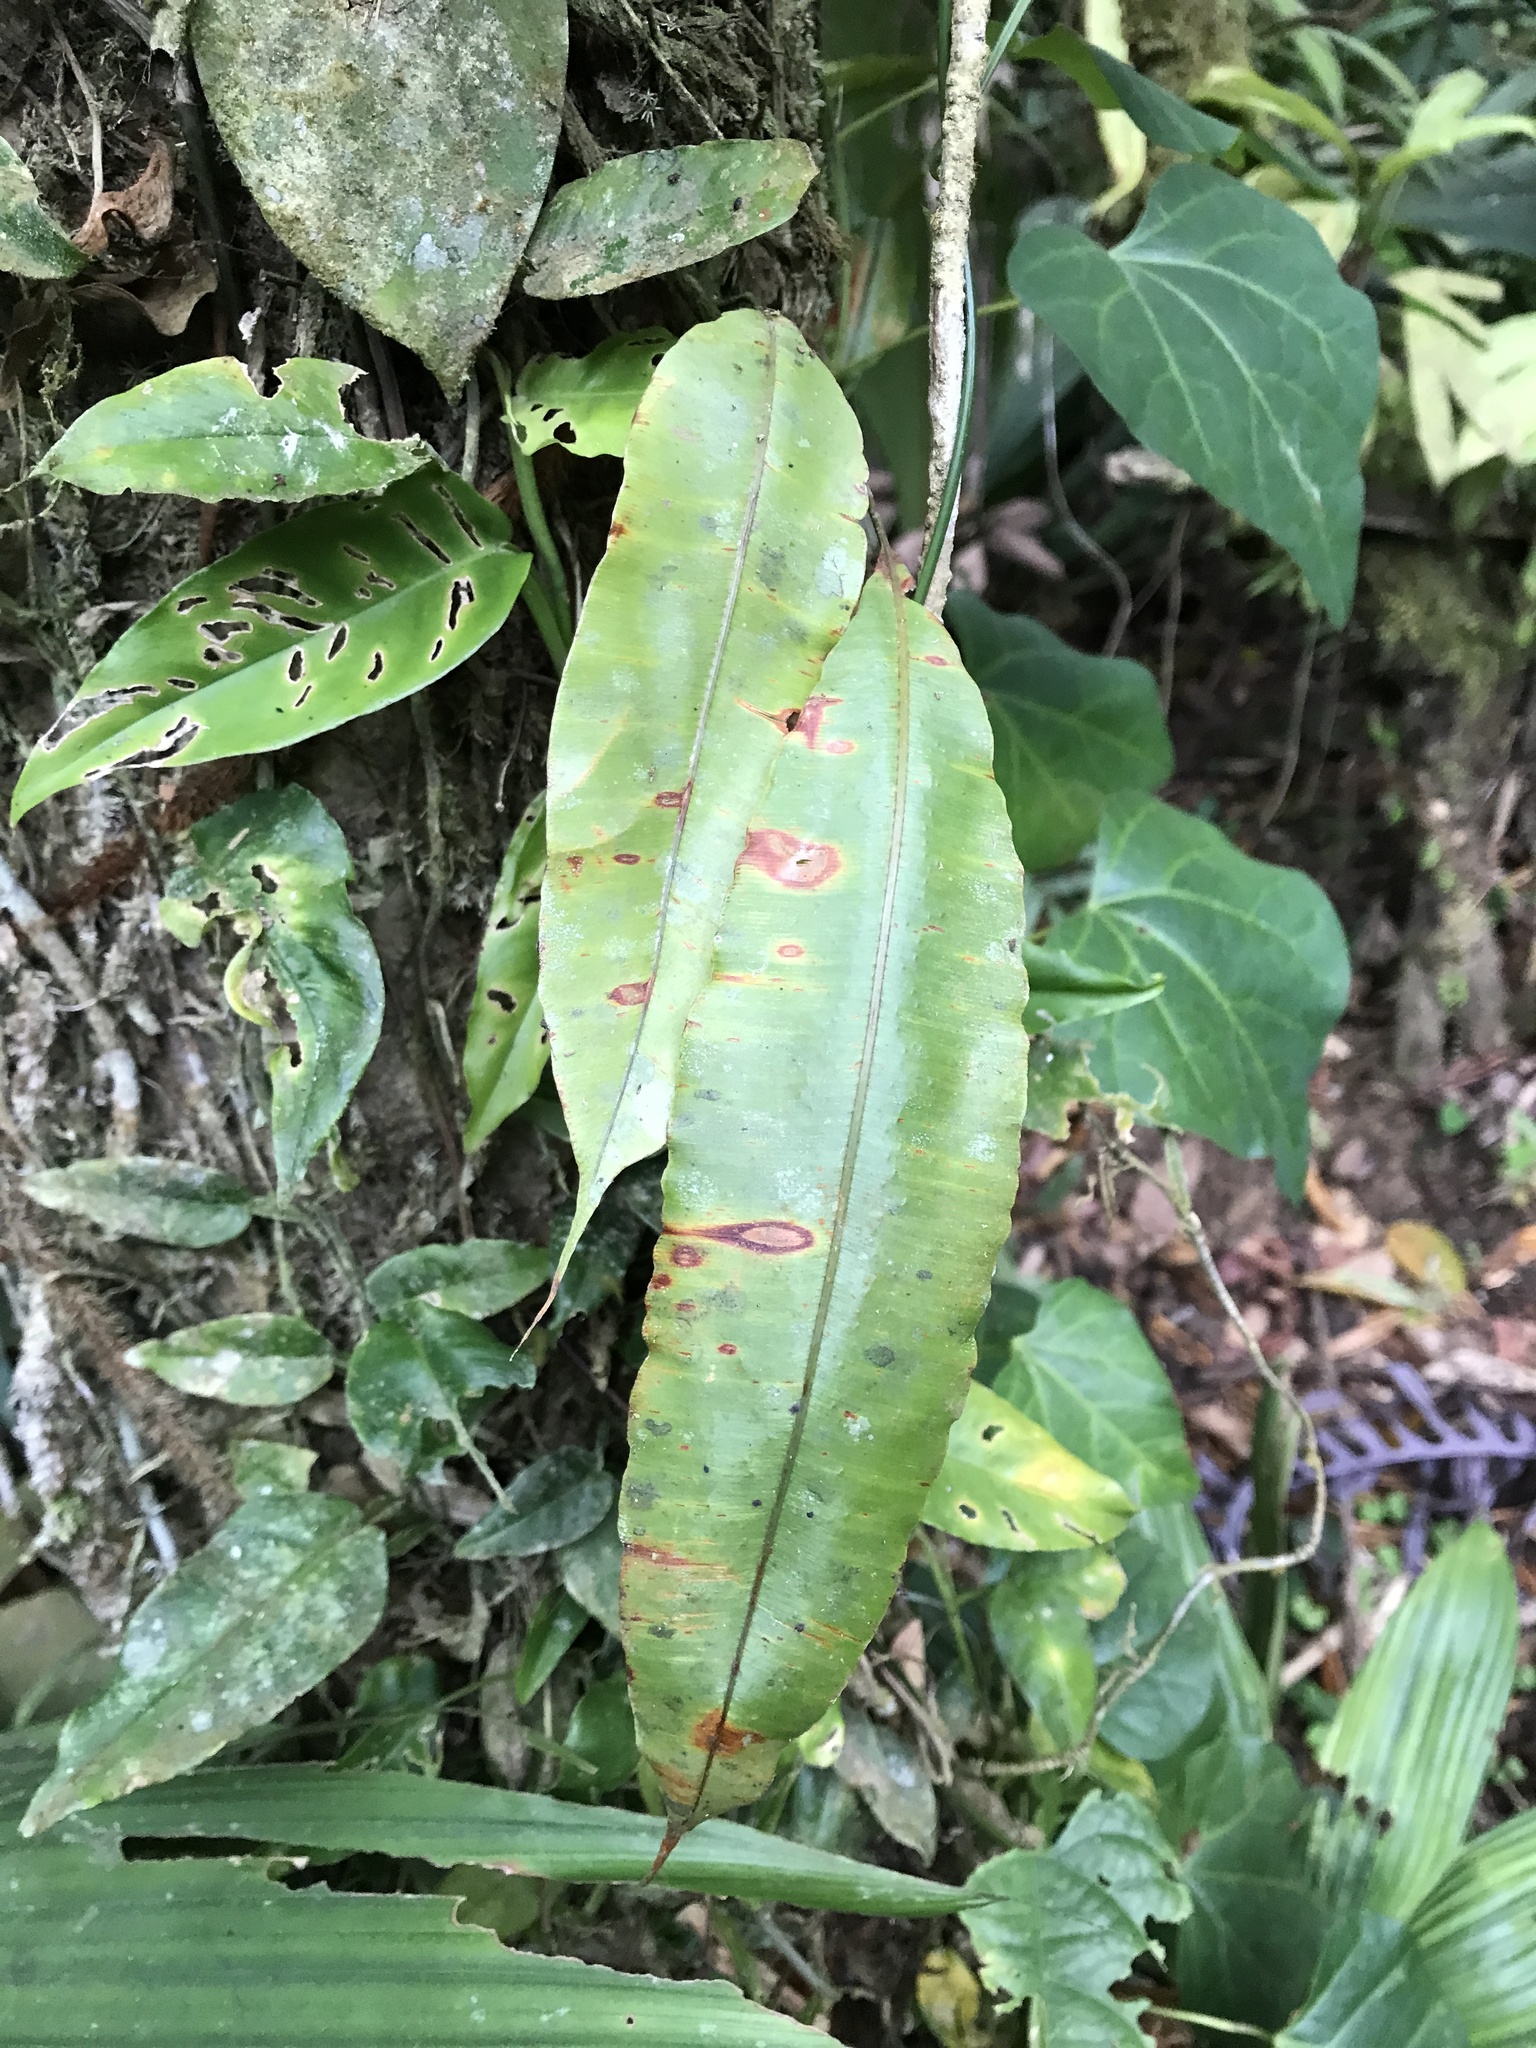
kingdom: Plantae
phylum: Tracheophyta
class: Polypodiopsida
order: Polypodiales
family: Oleandraceae
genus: Oleandra
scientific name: Oleandra articulata
